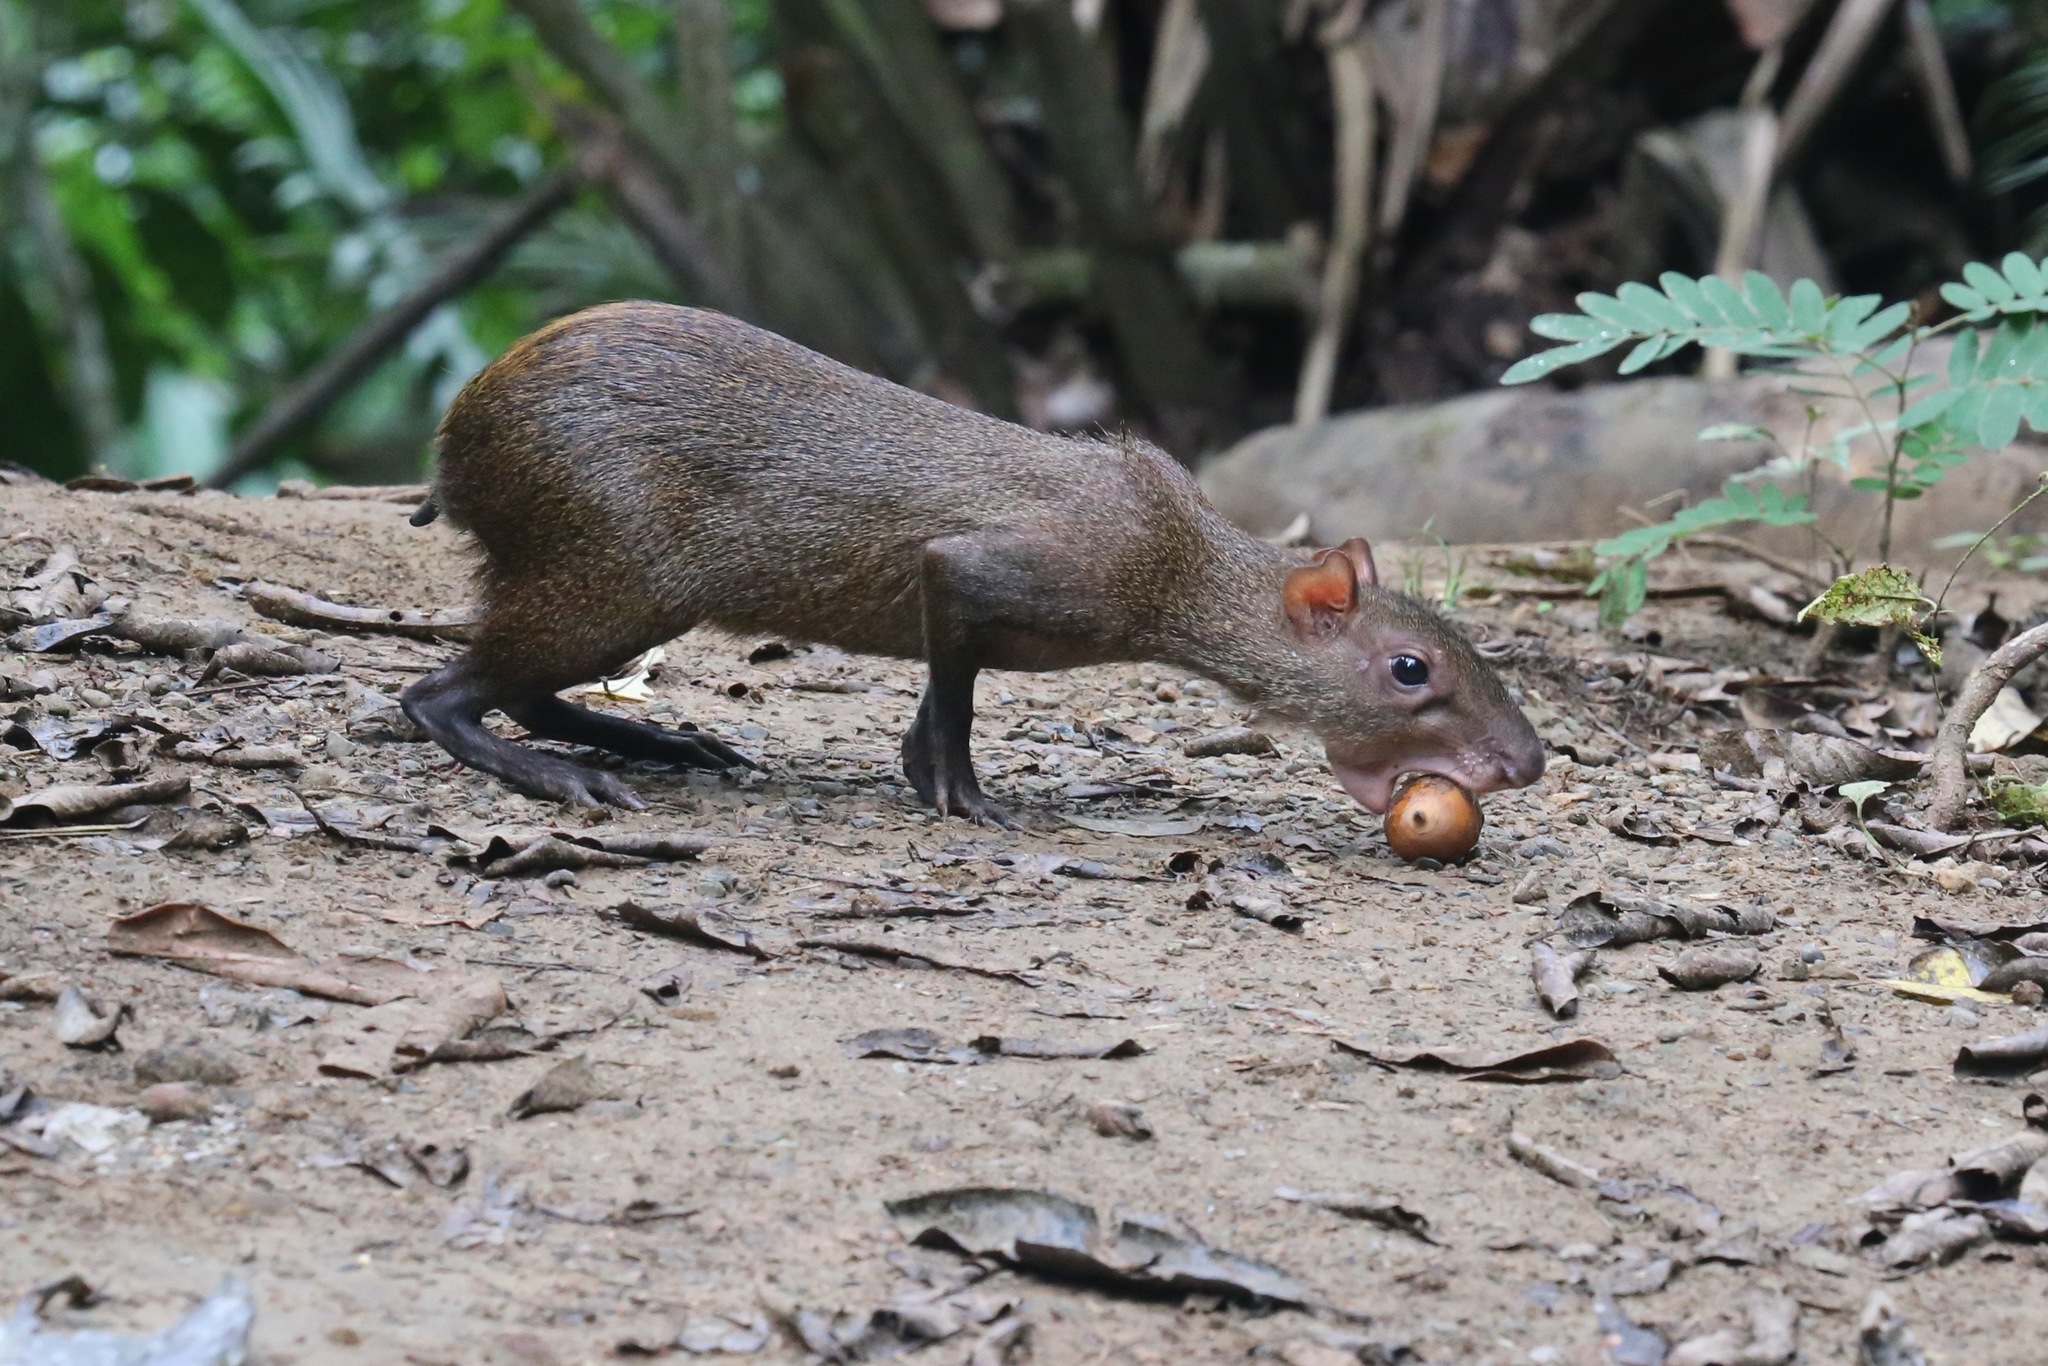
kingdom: Animalia
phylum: Chordata
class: Mammalia
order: Rodentia
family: Dasyproctidae
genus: Dasyprocta
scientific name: Dasyprocta punctata
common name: Central american agouti
